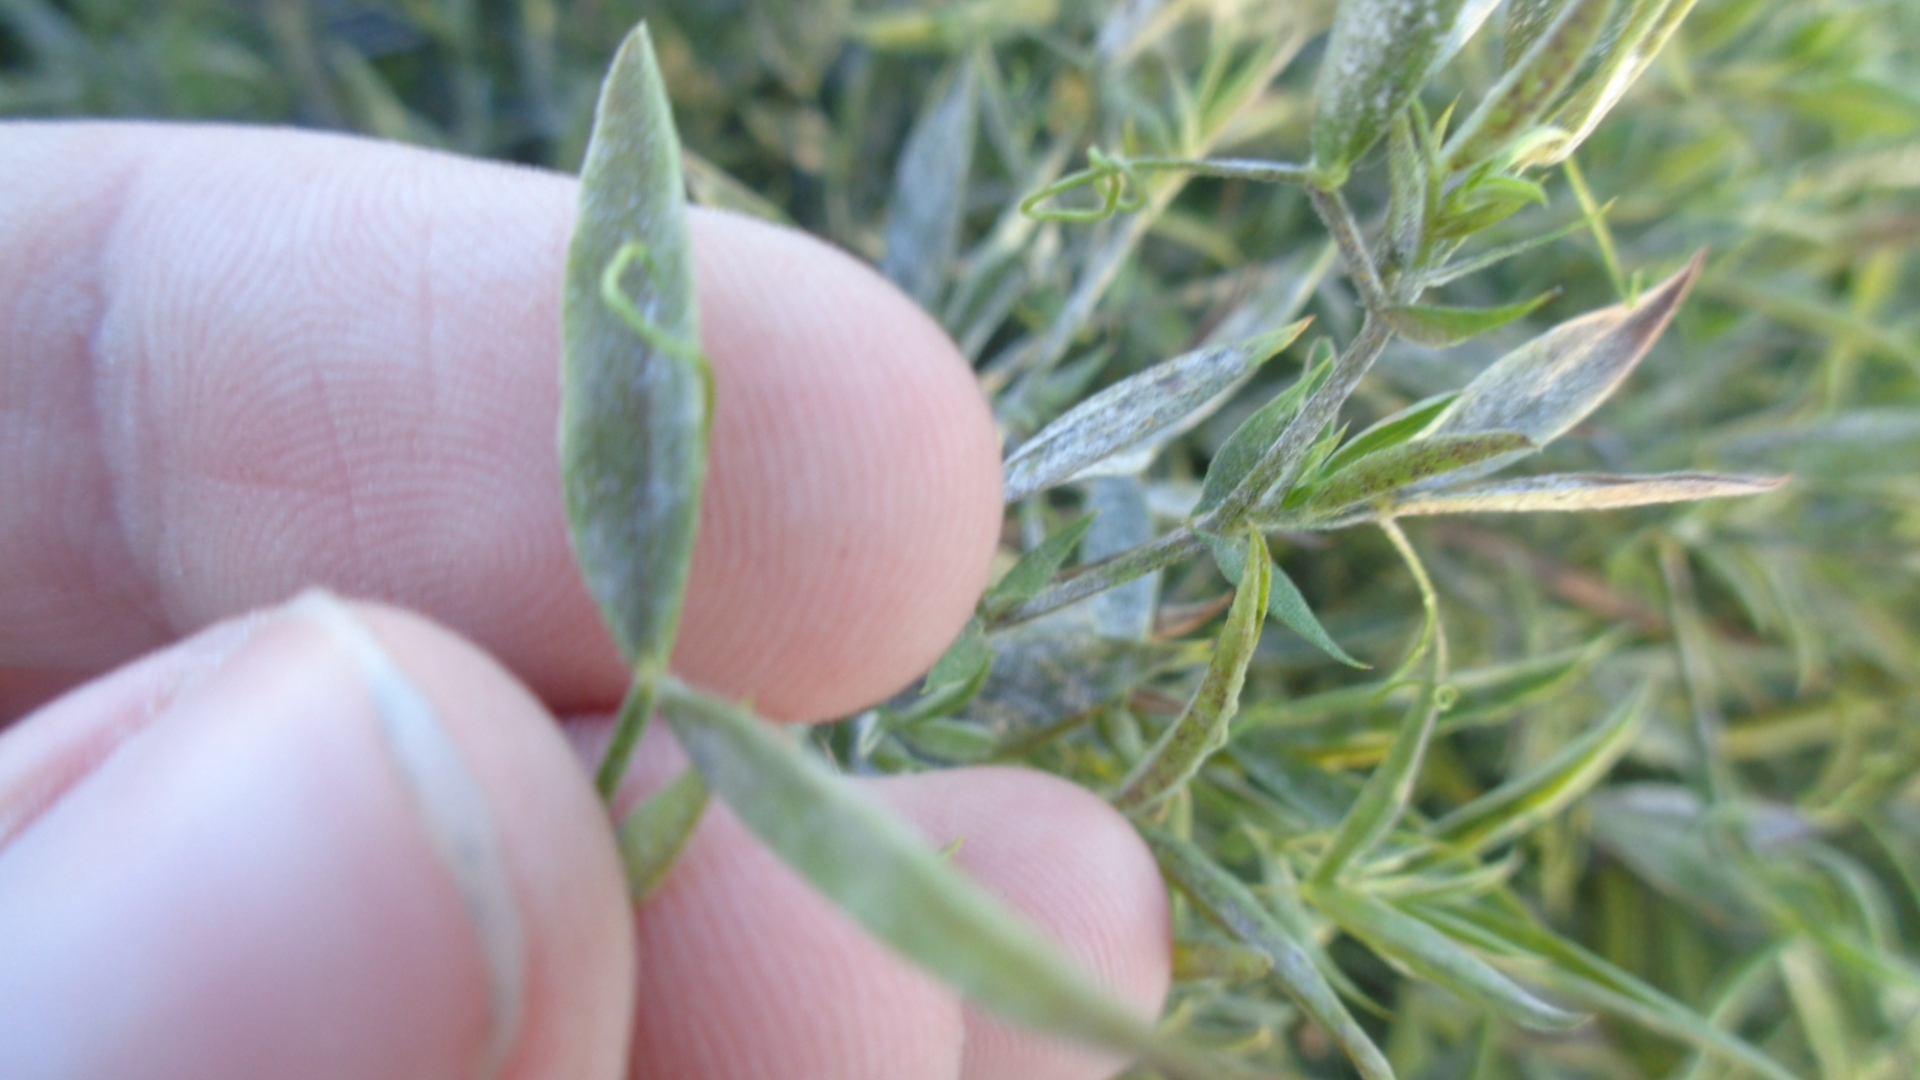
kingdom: Plantae
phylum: Tracheophyta
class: Magnoliopsida
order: Fabales
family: Fabaceae
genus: Lathyrus
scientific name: Lathyrus pratensis
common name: Meadow vetchling
